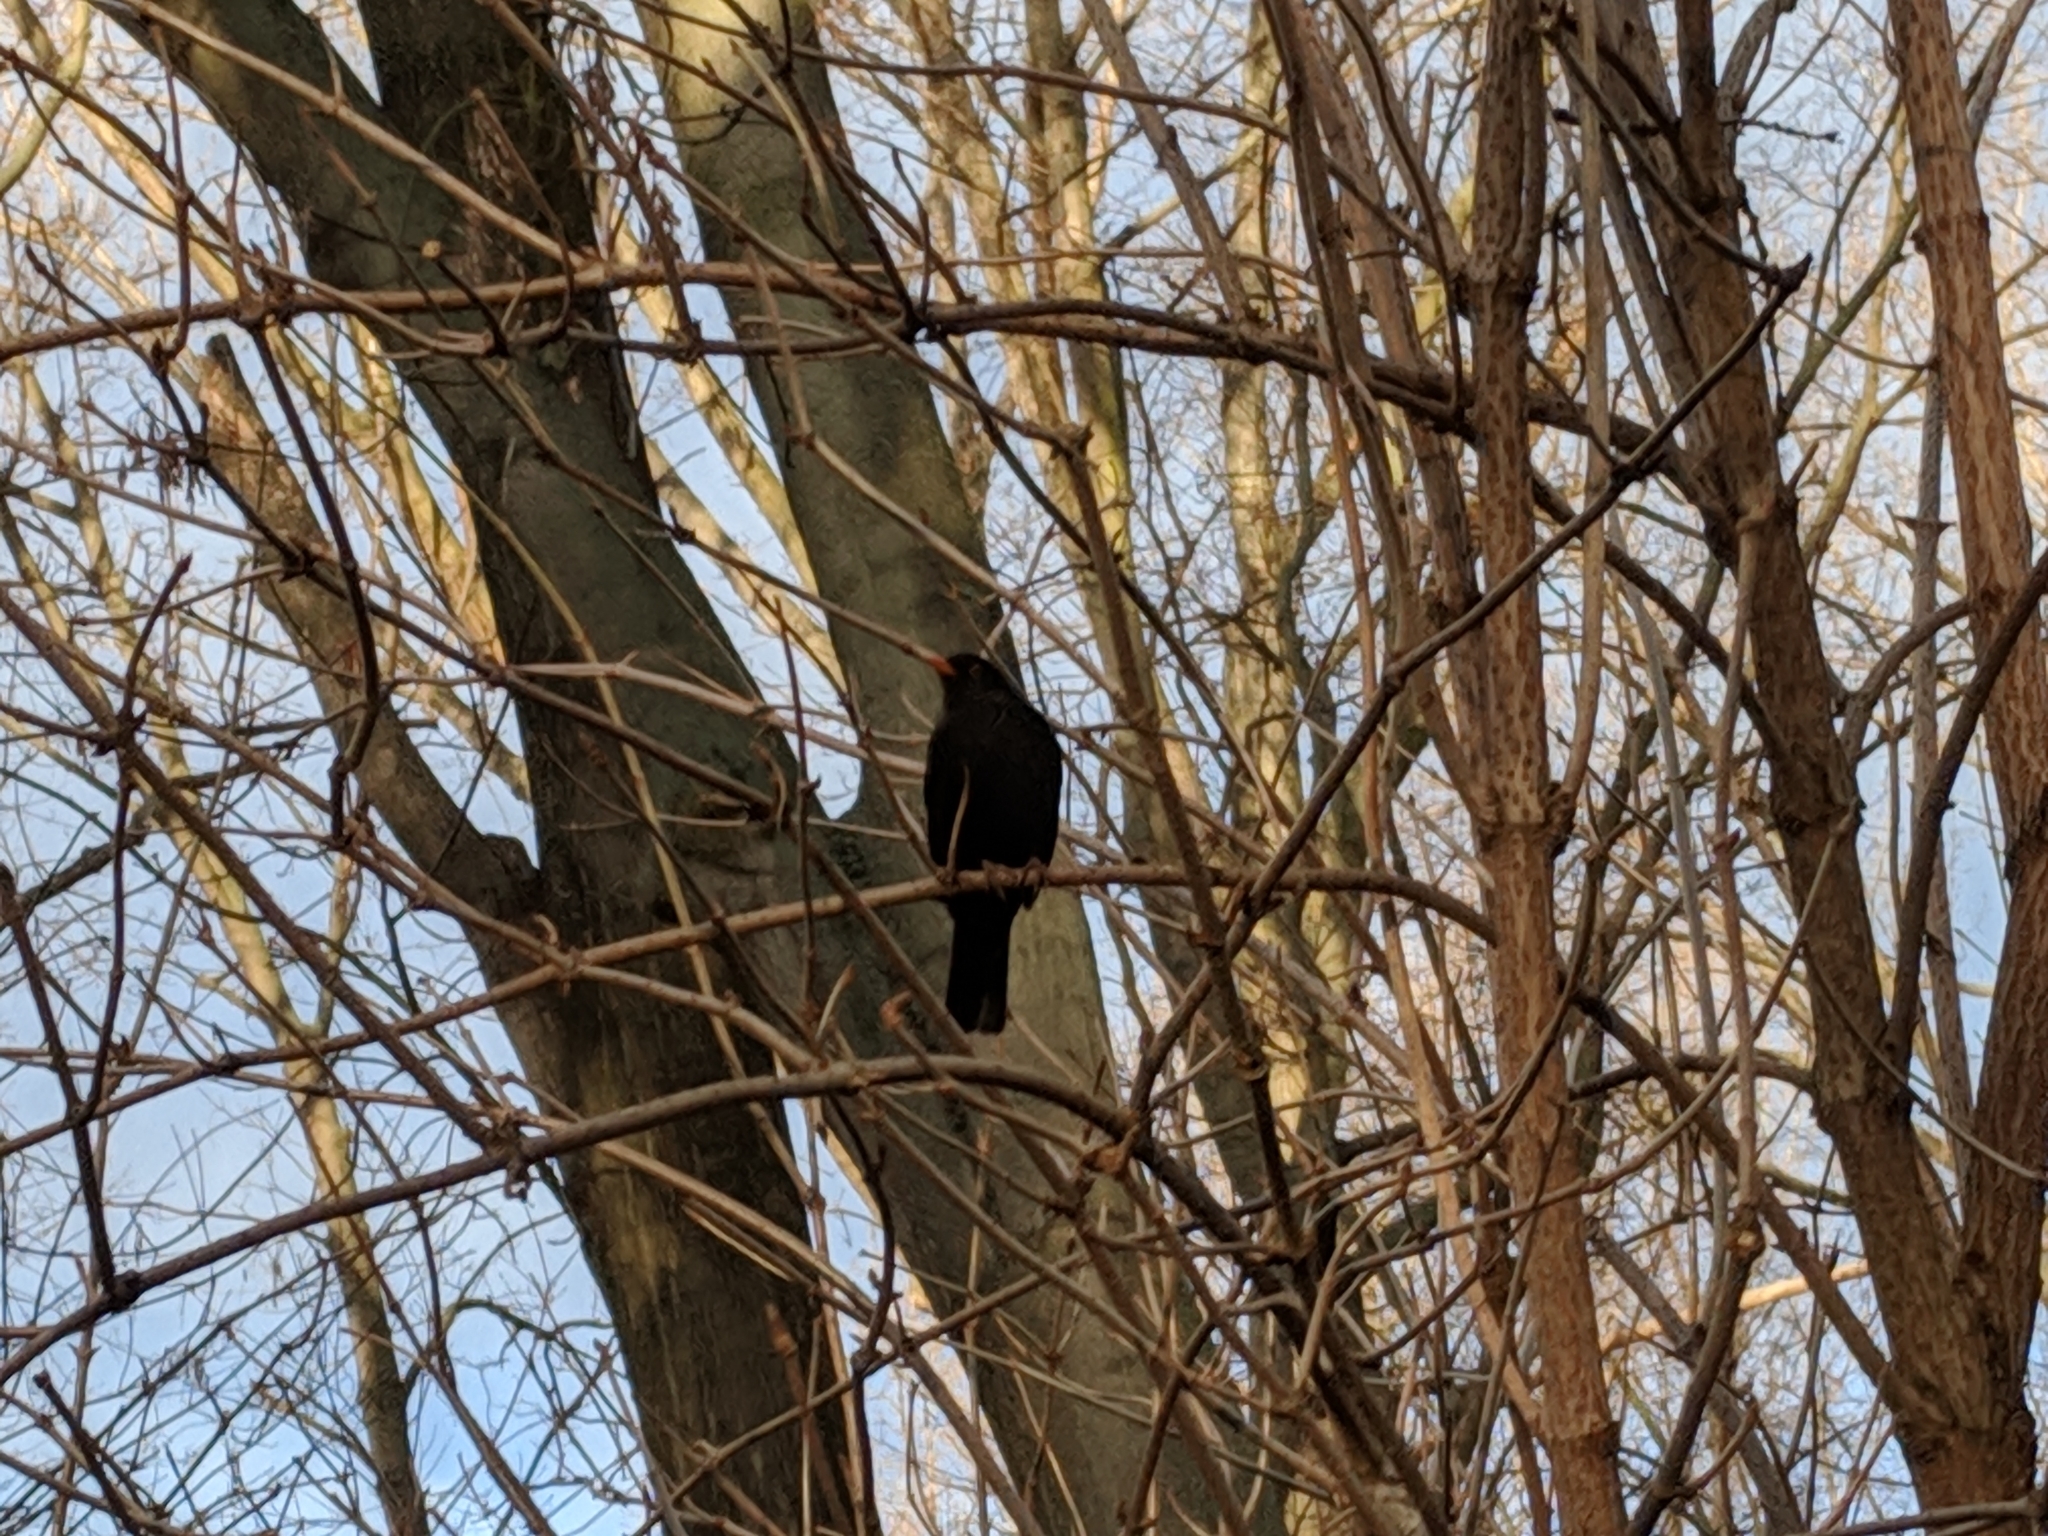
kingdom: Animalia
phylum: Chordata
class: Aves
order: Passeriformes
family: Turdidae
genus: Turdus
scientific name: Turdus merula
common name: Common blackbird
